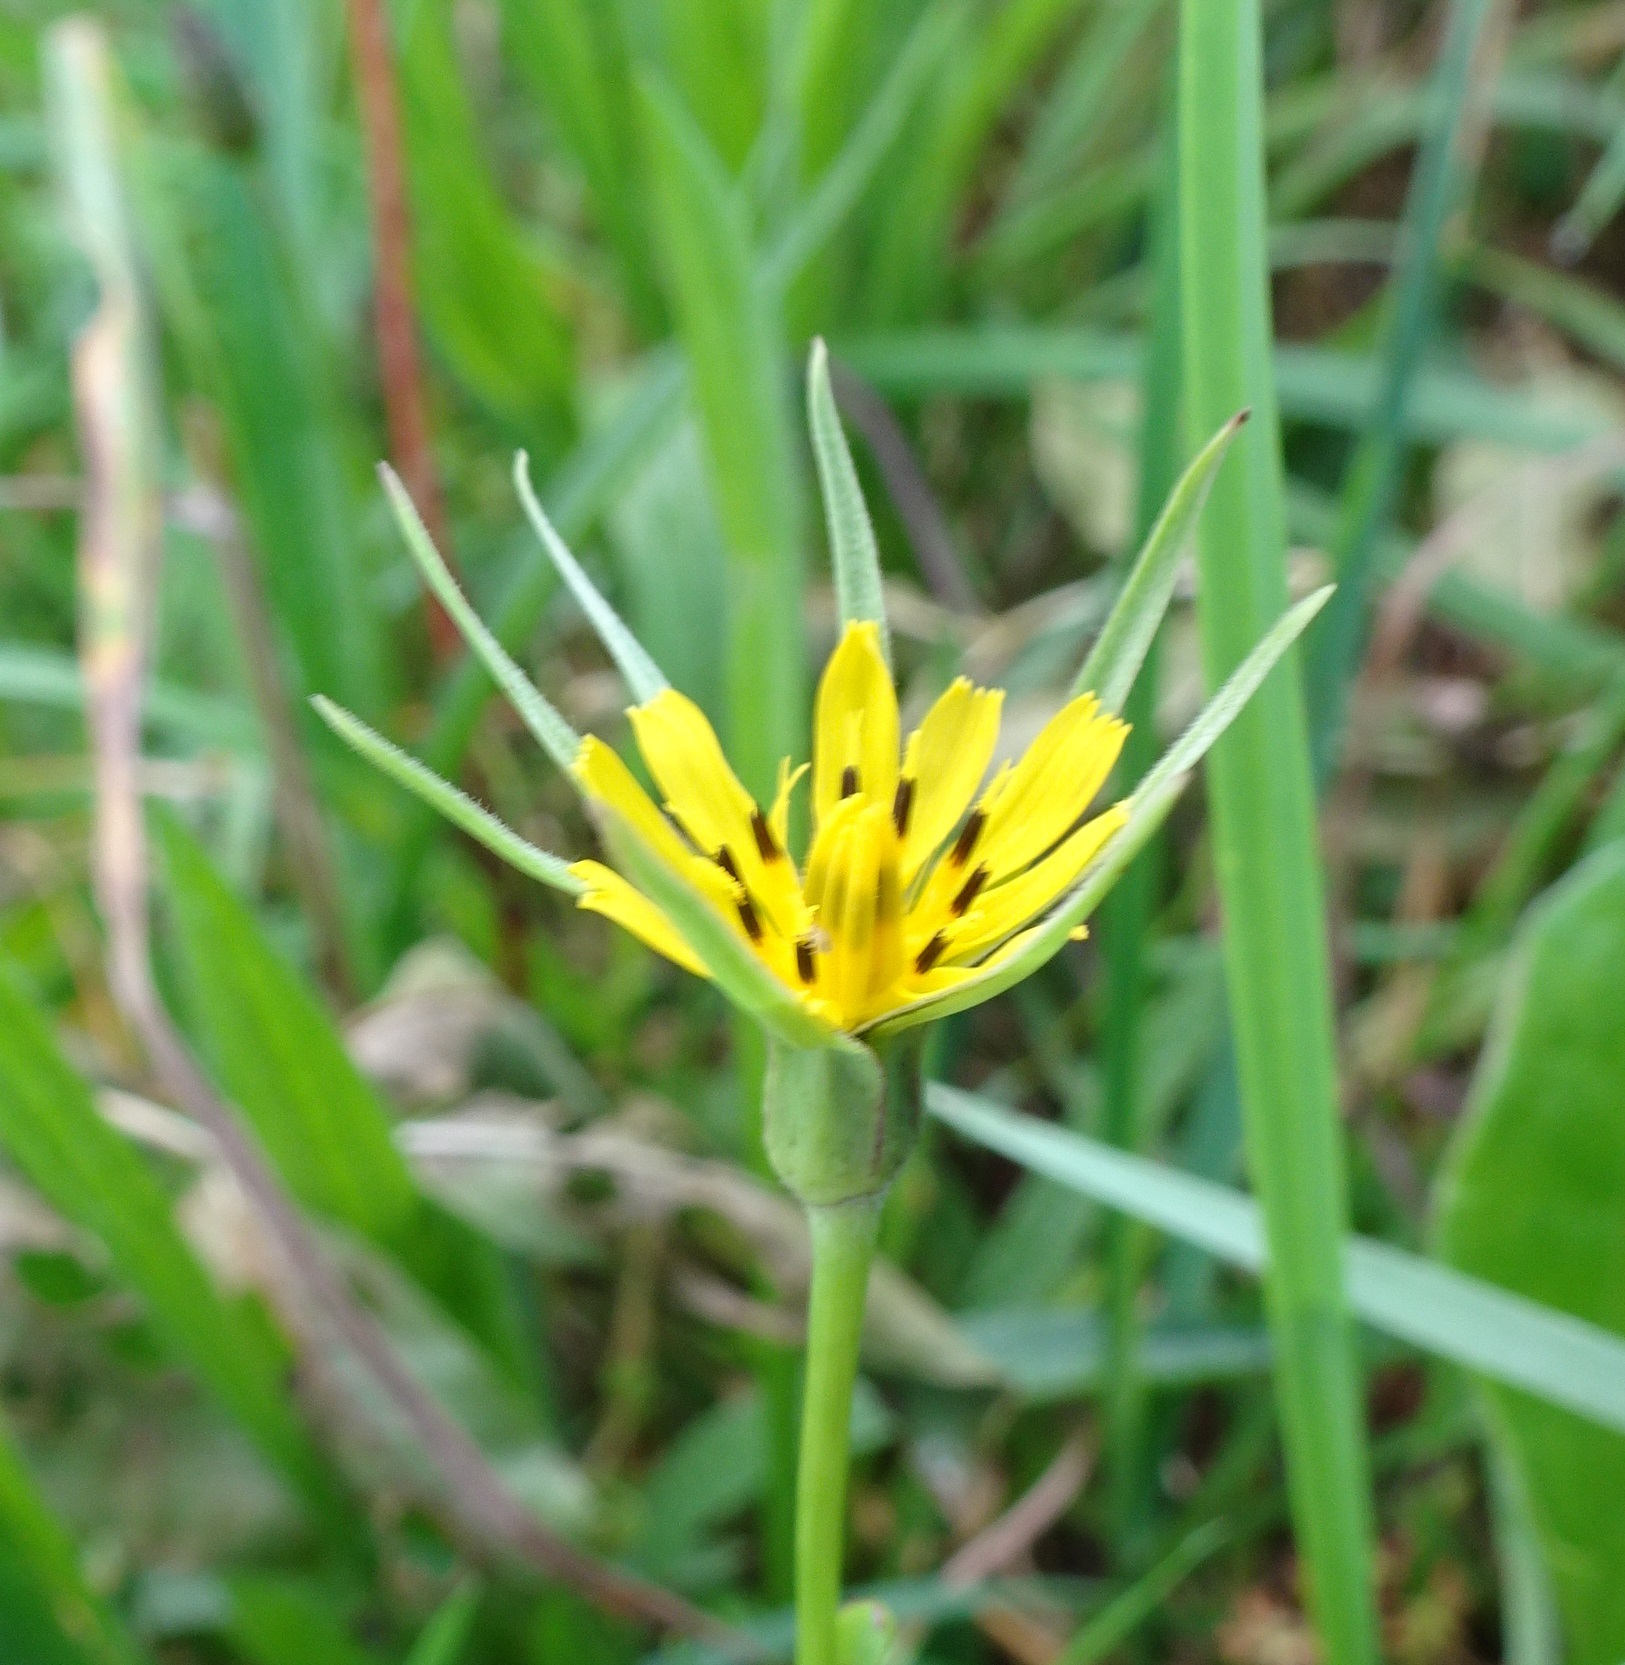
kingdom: Plantae
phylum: Tracheophyta
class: Magnoliopsida
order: Asterales
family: Asteraceae
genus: Tragopogon
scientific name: Tragopogon pratensis
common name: Goat's-beard
